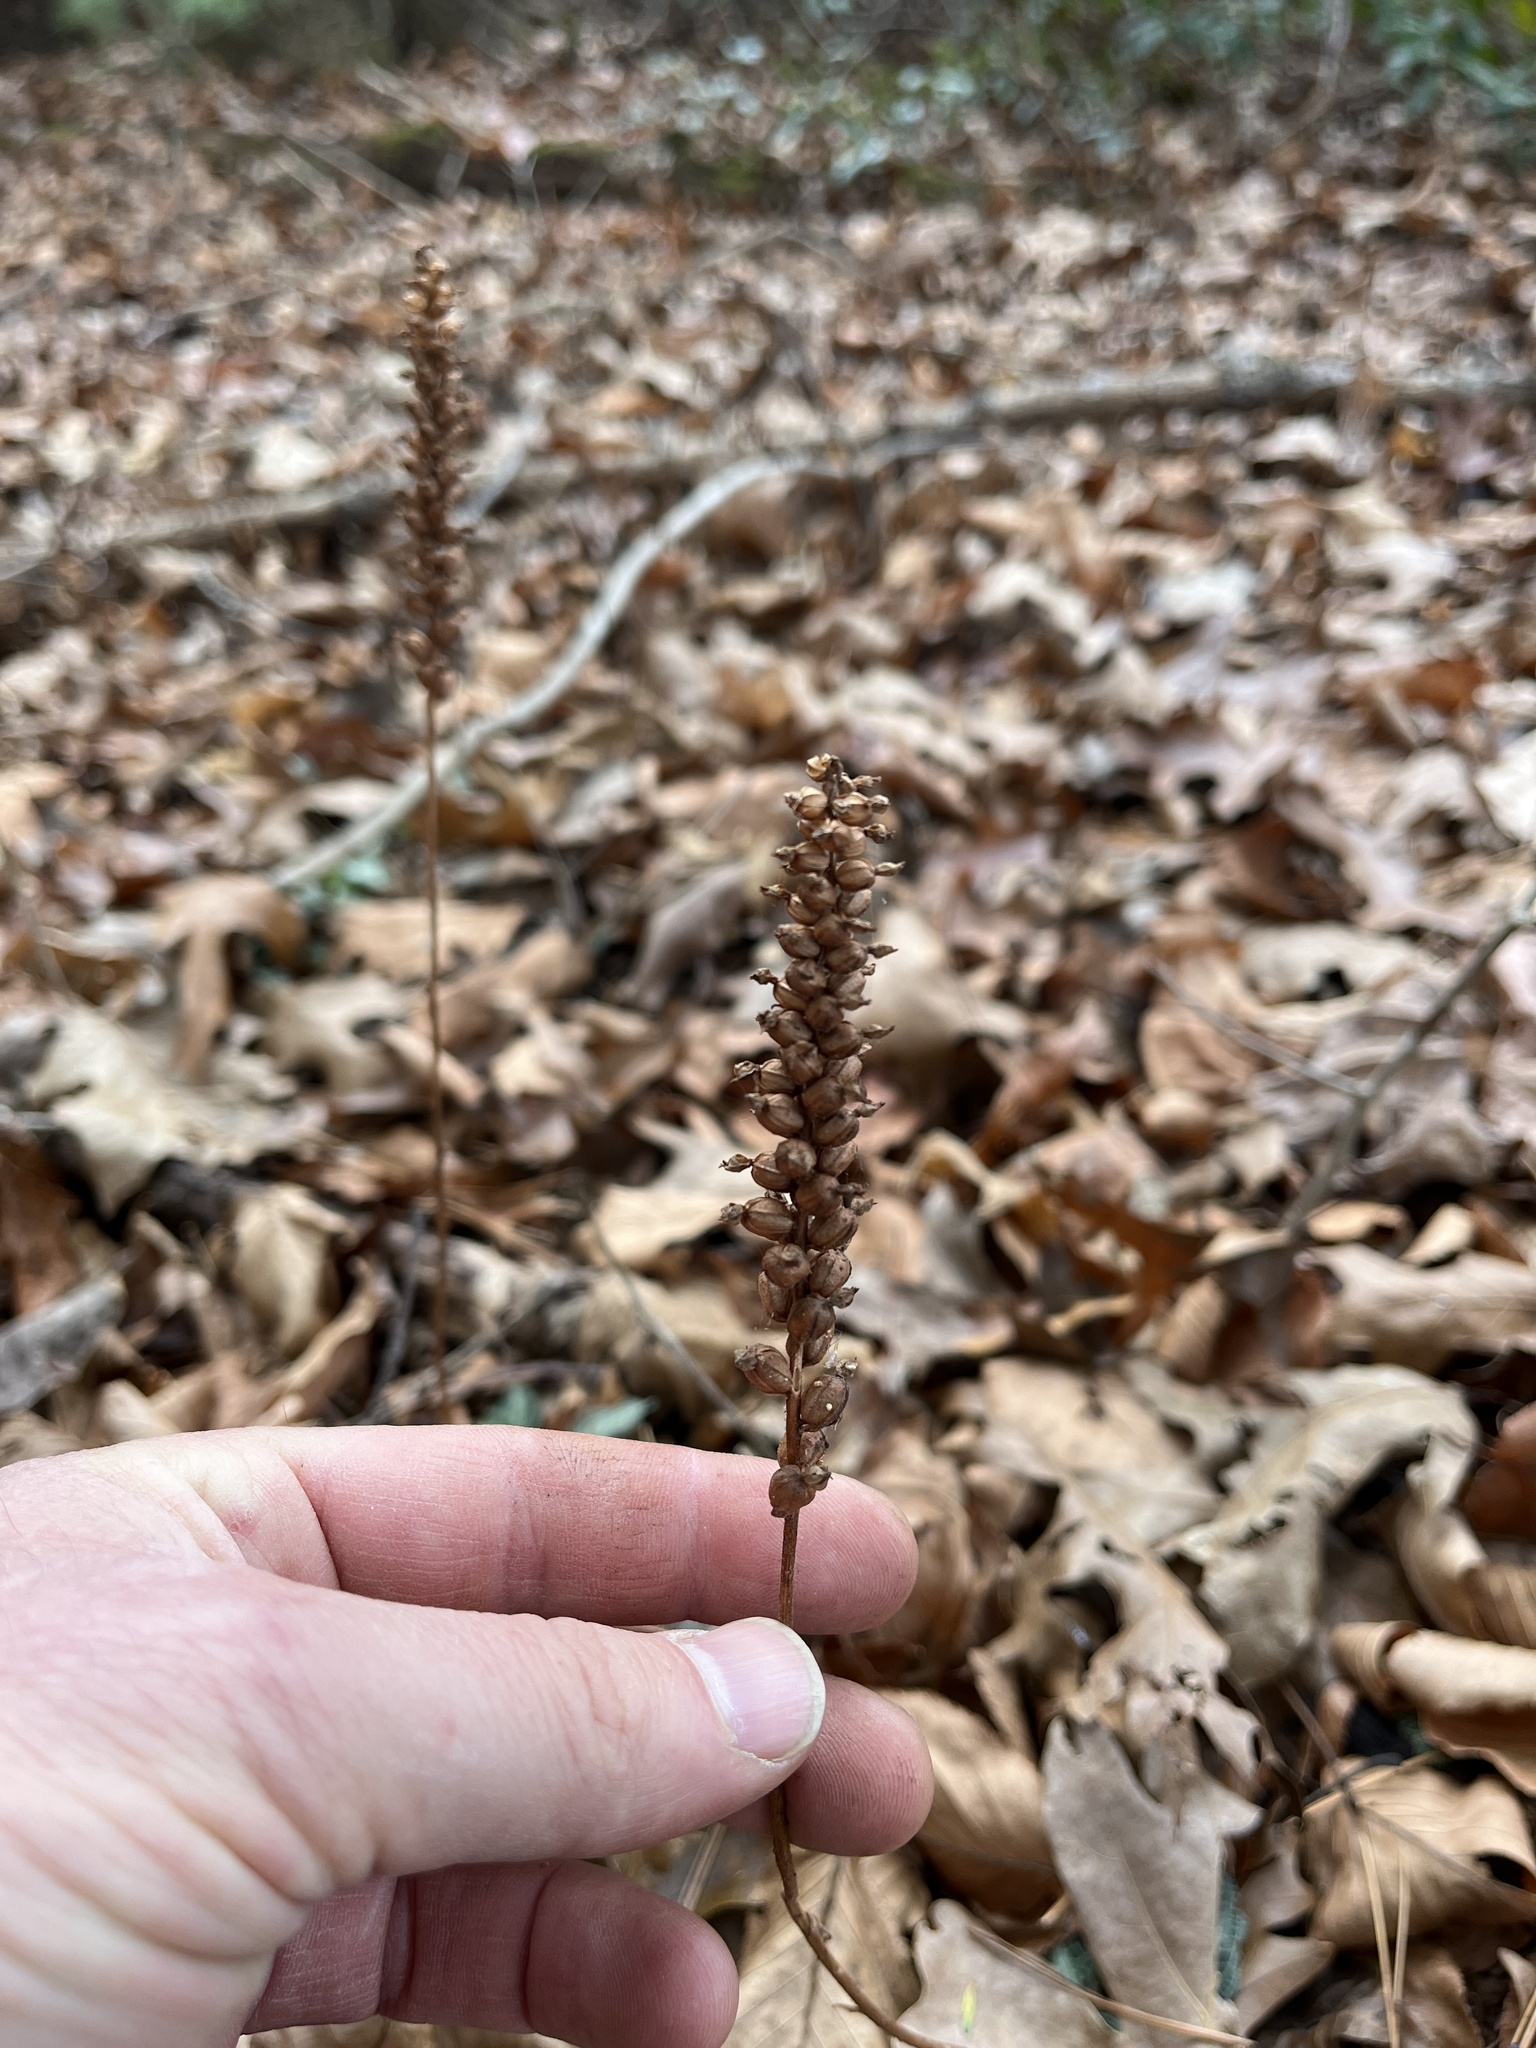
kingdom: Plantae
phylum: Tracheophyta
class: Liliopsida
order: Asparagales
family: Orchidaceae
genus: Goodyera
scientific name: Goodyera pubescens
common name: Downy rattlesnake-plantain
